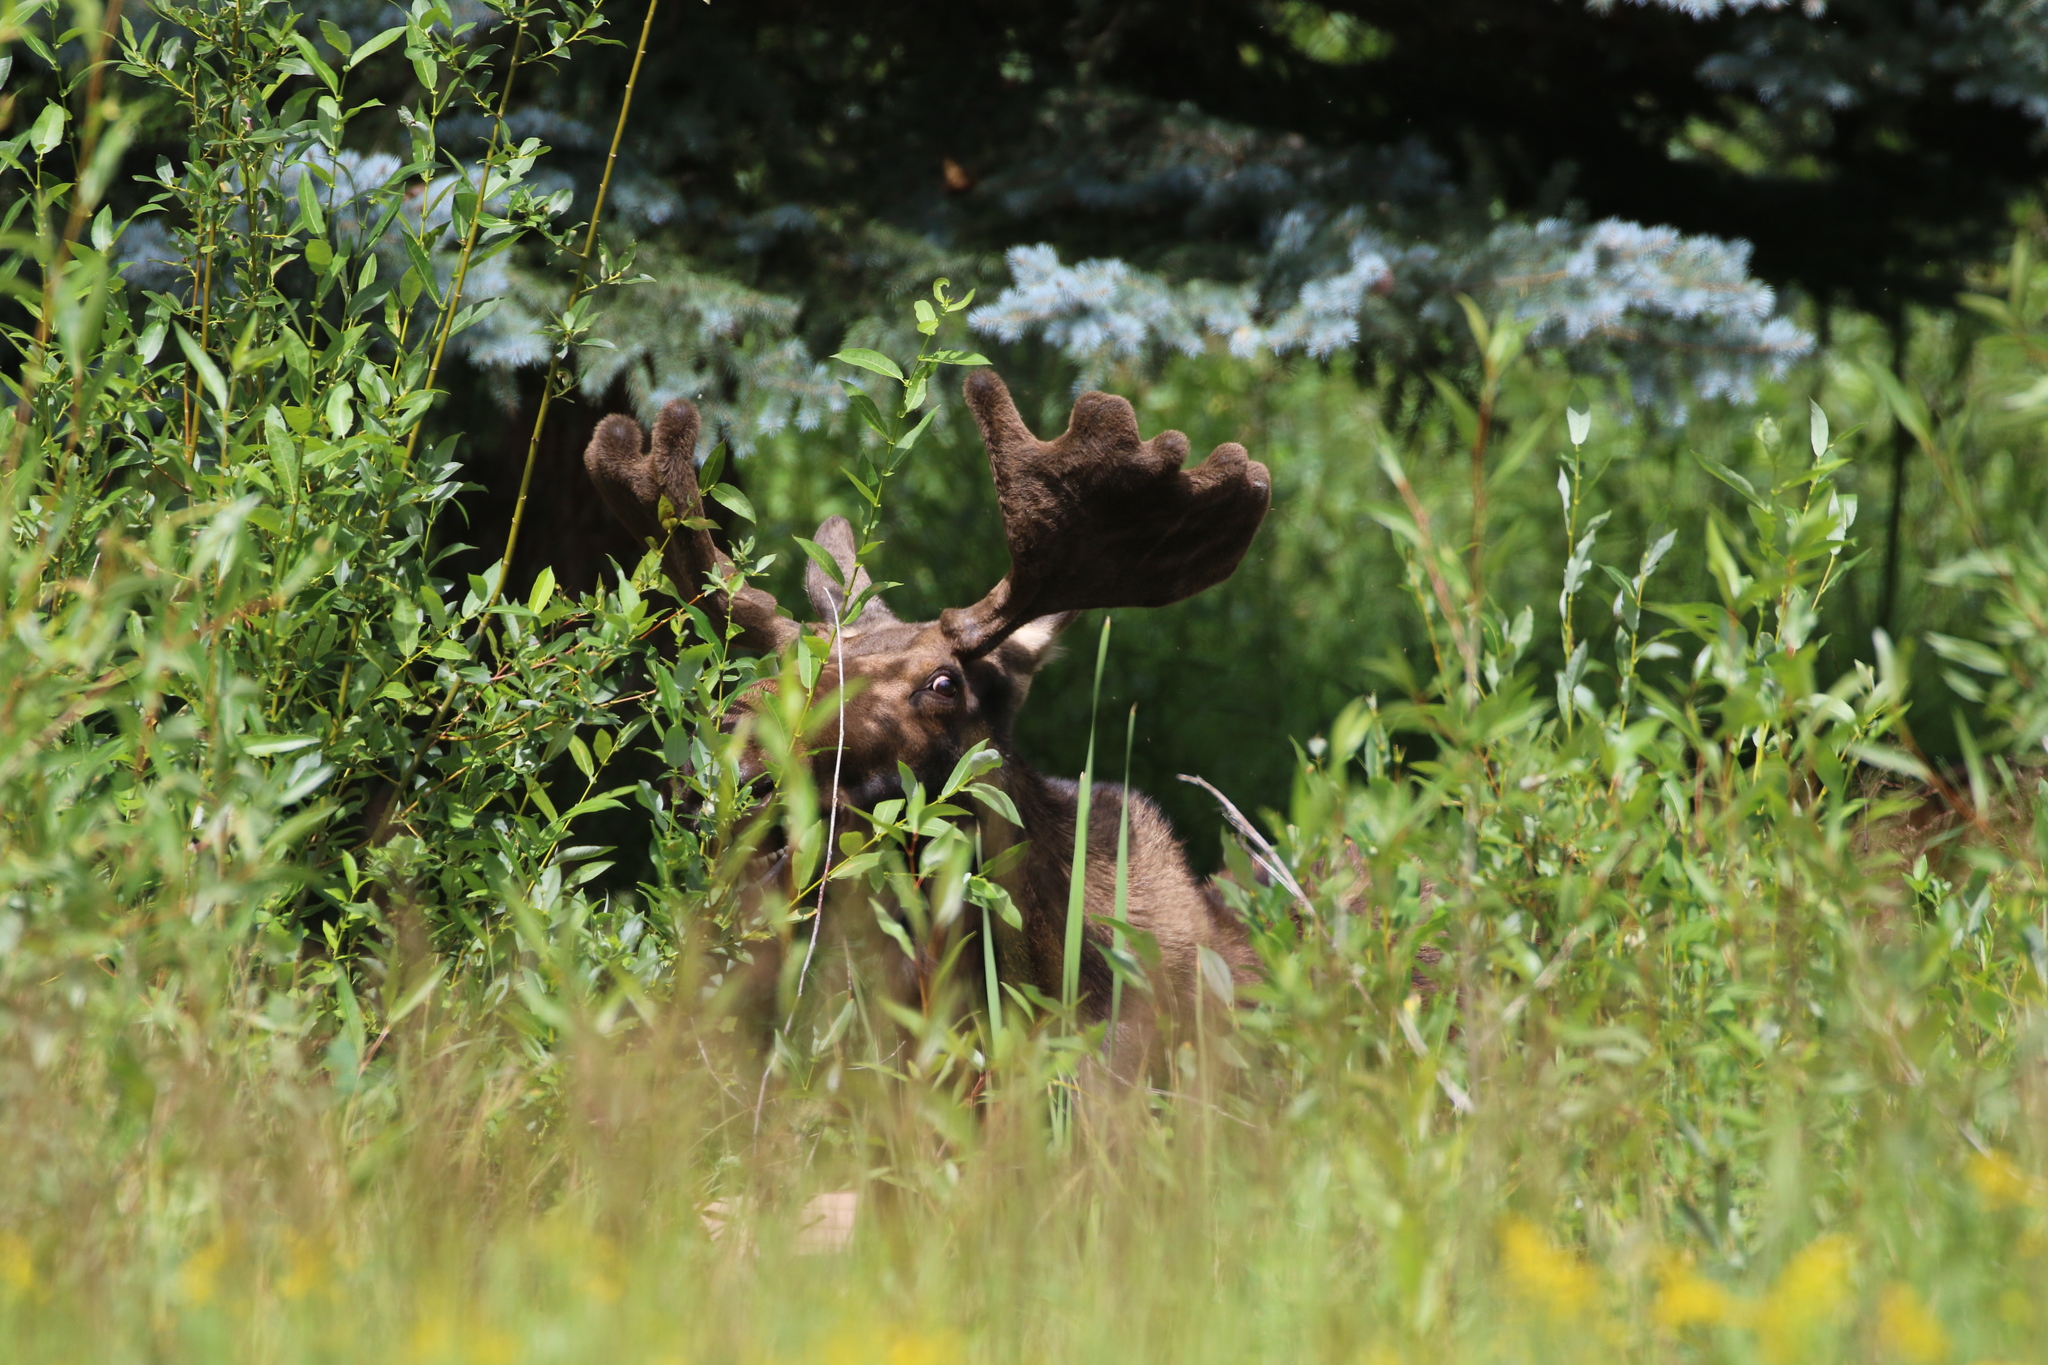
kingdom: Animalia
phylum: Chordata
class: Mammalia
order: Artiodactyla
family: Cervidae
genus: Alces
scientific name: Alces alces
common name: Moose
